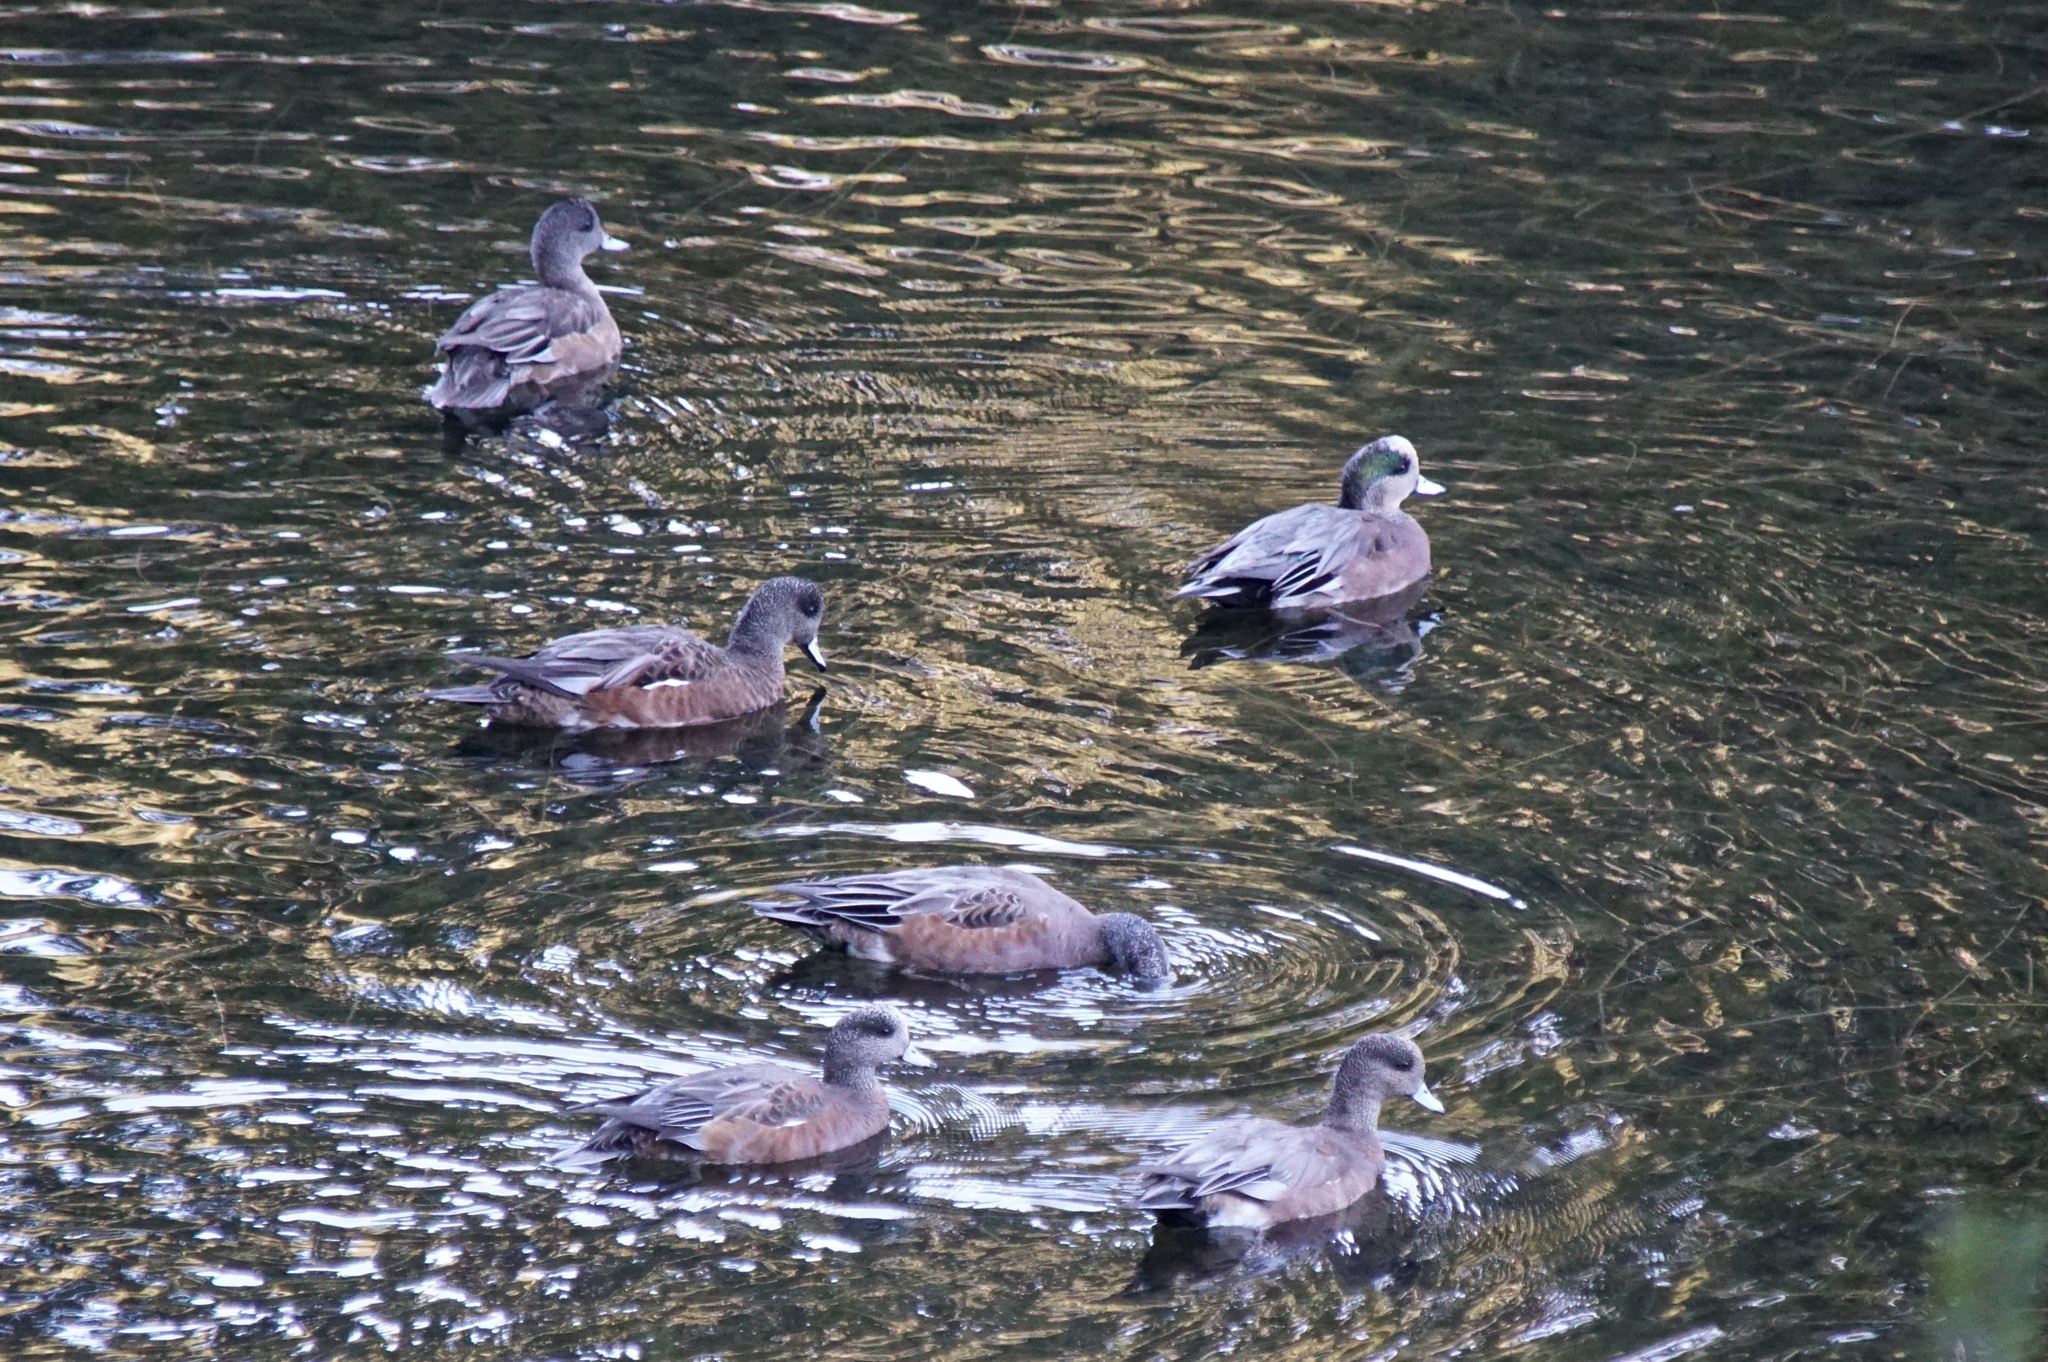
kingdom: Animalia
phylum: Chordata
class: Aves
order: Anseriformes
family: Anatidae
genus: Mareca
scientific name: Mareca americana
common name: American wigeon
